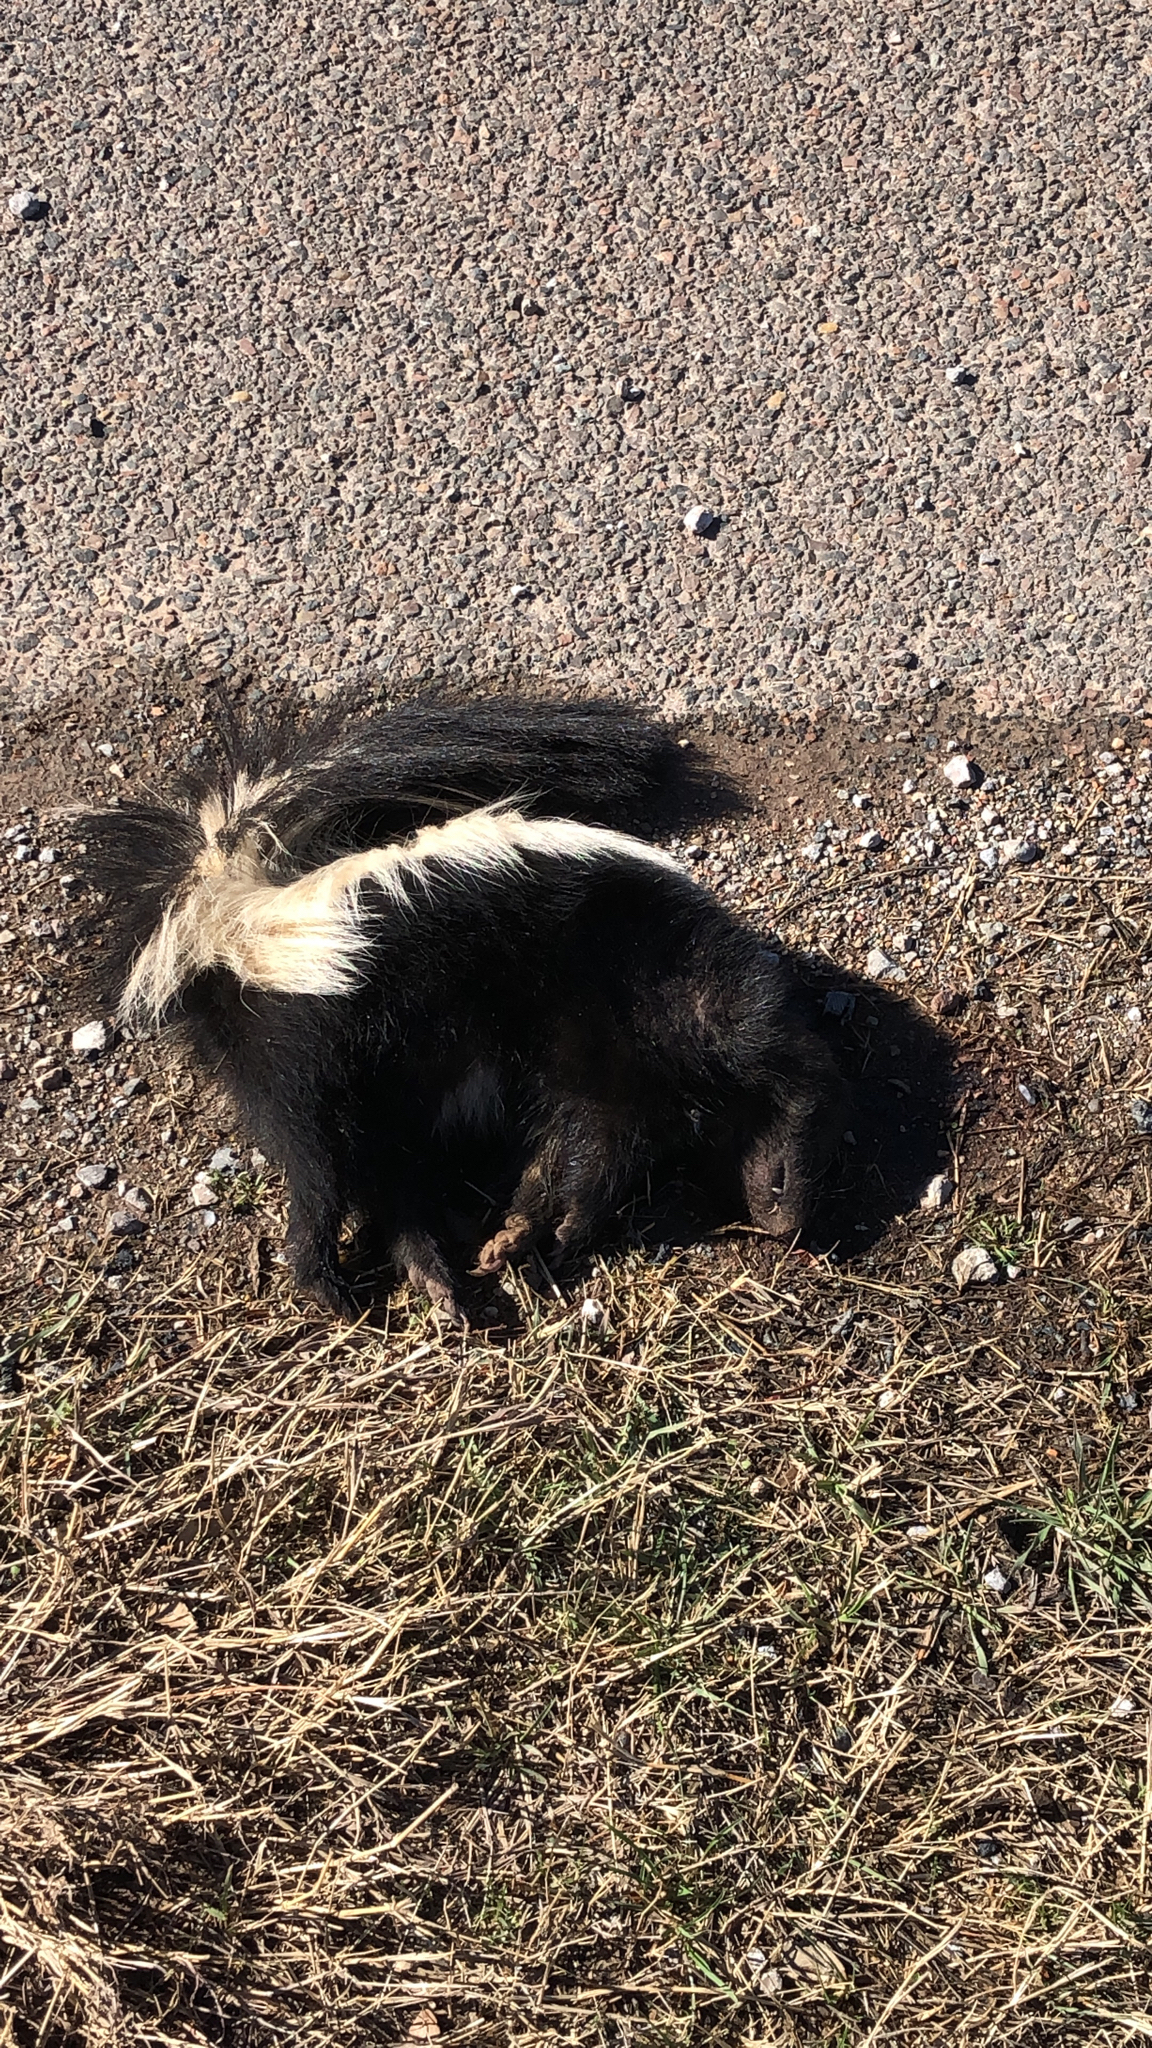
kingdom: Animalia
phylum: Chordata
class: Mammalia
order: Carnivora
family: Mephitidae
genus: Mephitis
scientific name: Mephitis mephitis
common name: Striped skunk
